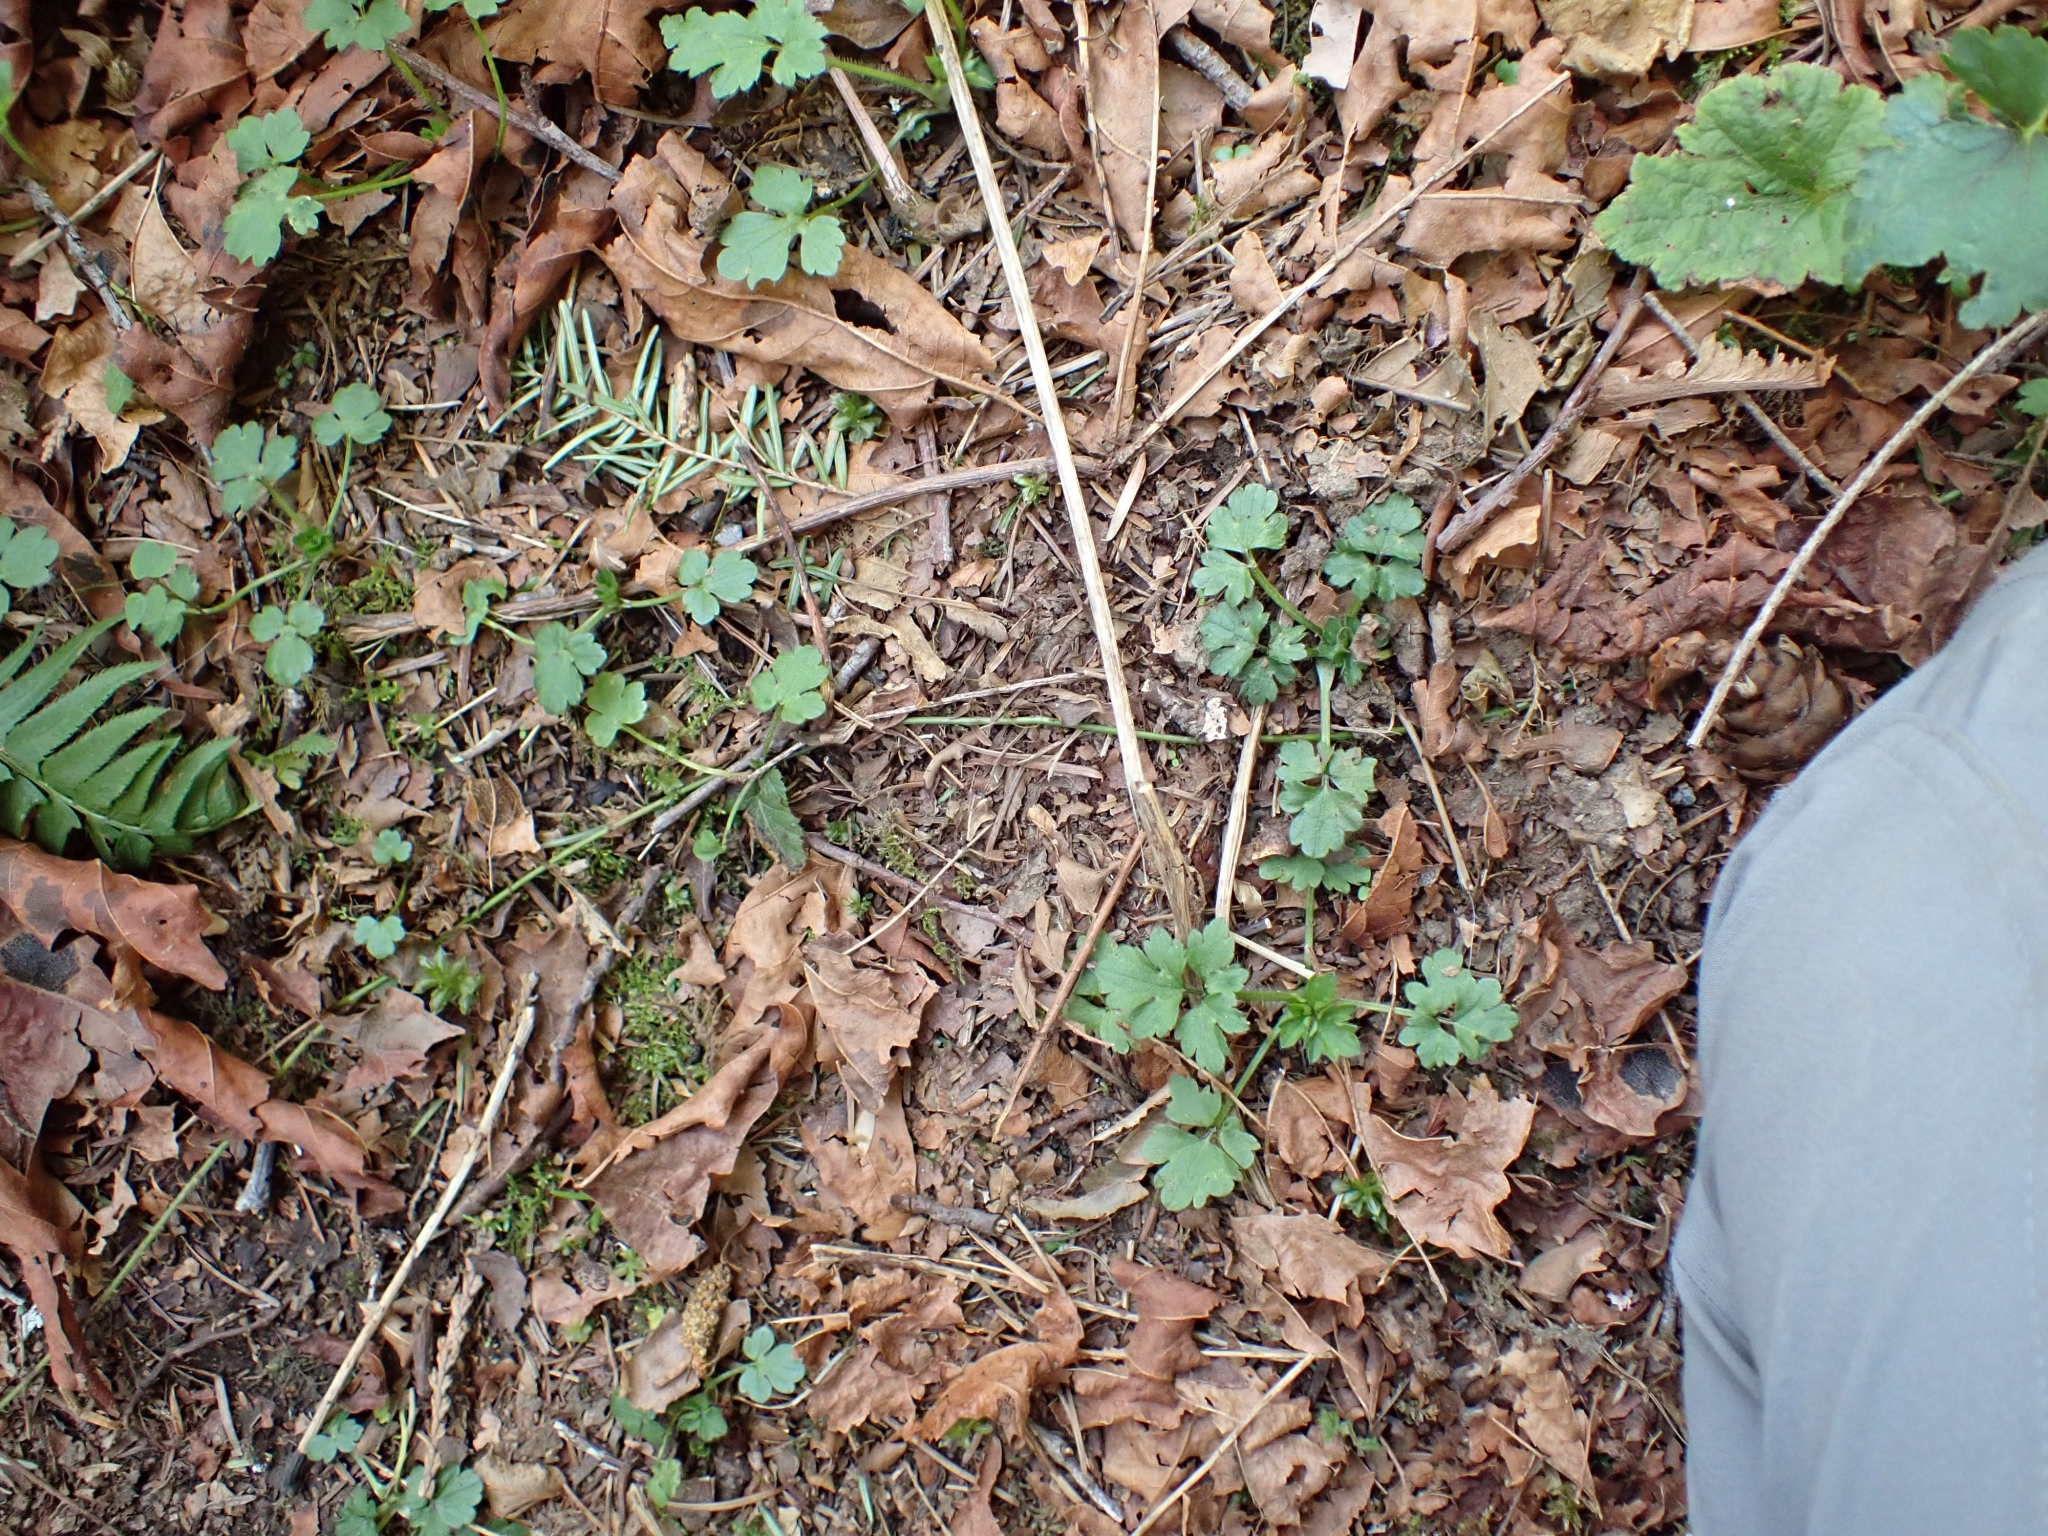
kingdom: Plantae
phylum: Tracheophyta
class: Magnoliopsida
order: Ranunculales
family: Ranunculaceae
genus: Ranunculus
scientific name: Ranunculus repens
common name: Creeping buttercup
